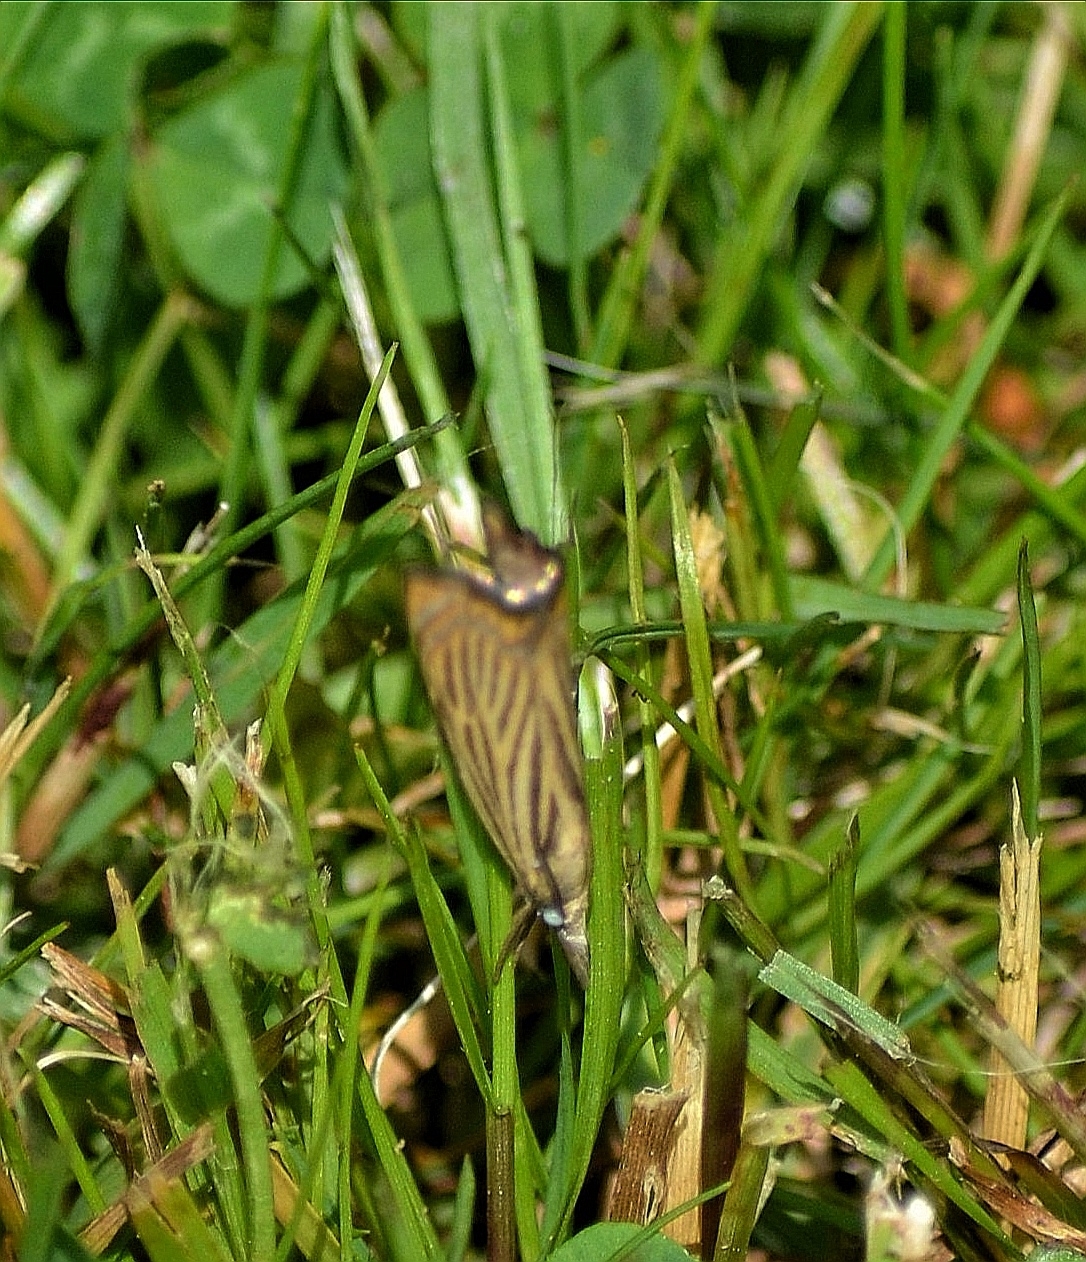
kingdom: Animalia
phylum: Arthropoda
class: Insecta
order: Lepidoptera
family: Crambidae
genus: Chrysoteuchia
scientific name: Chrysoteuchia culmella
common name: Garden grass-veneer
